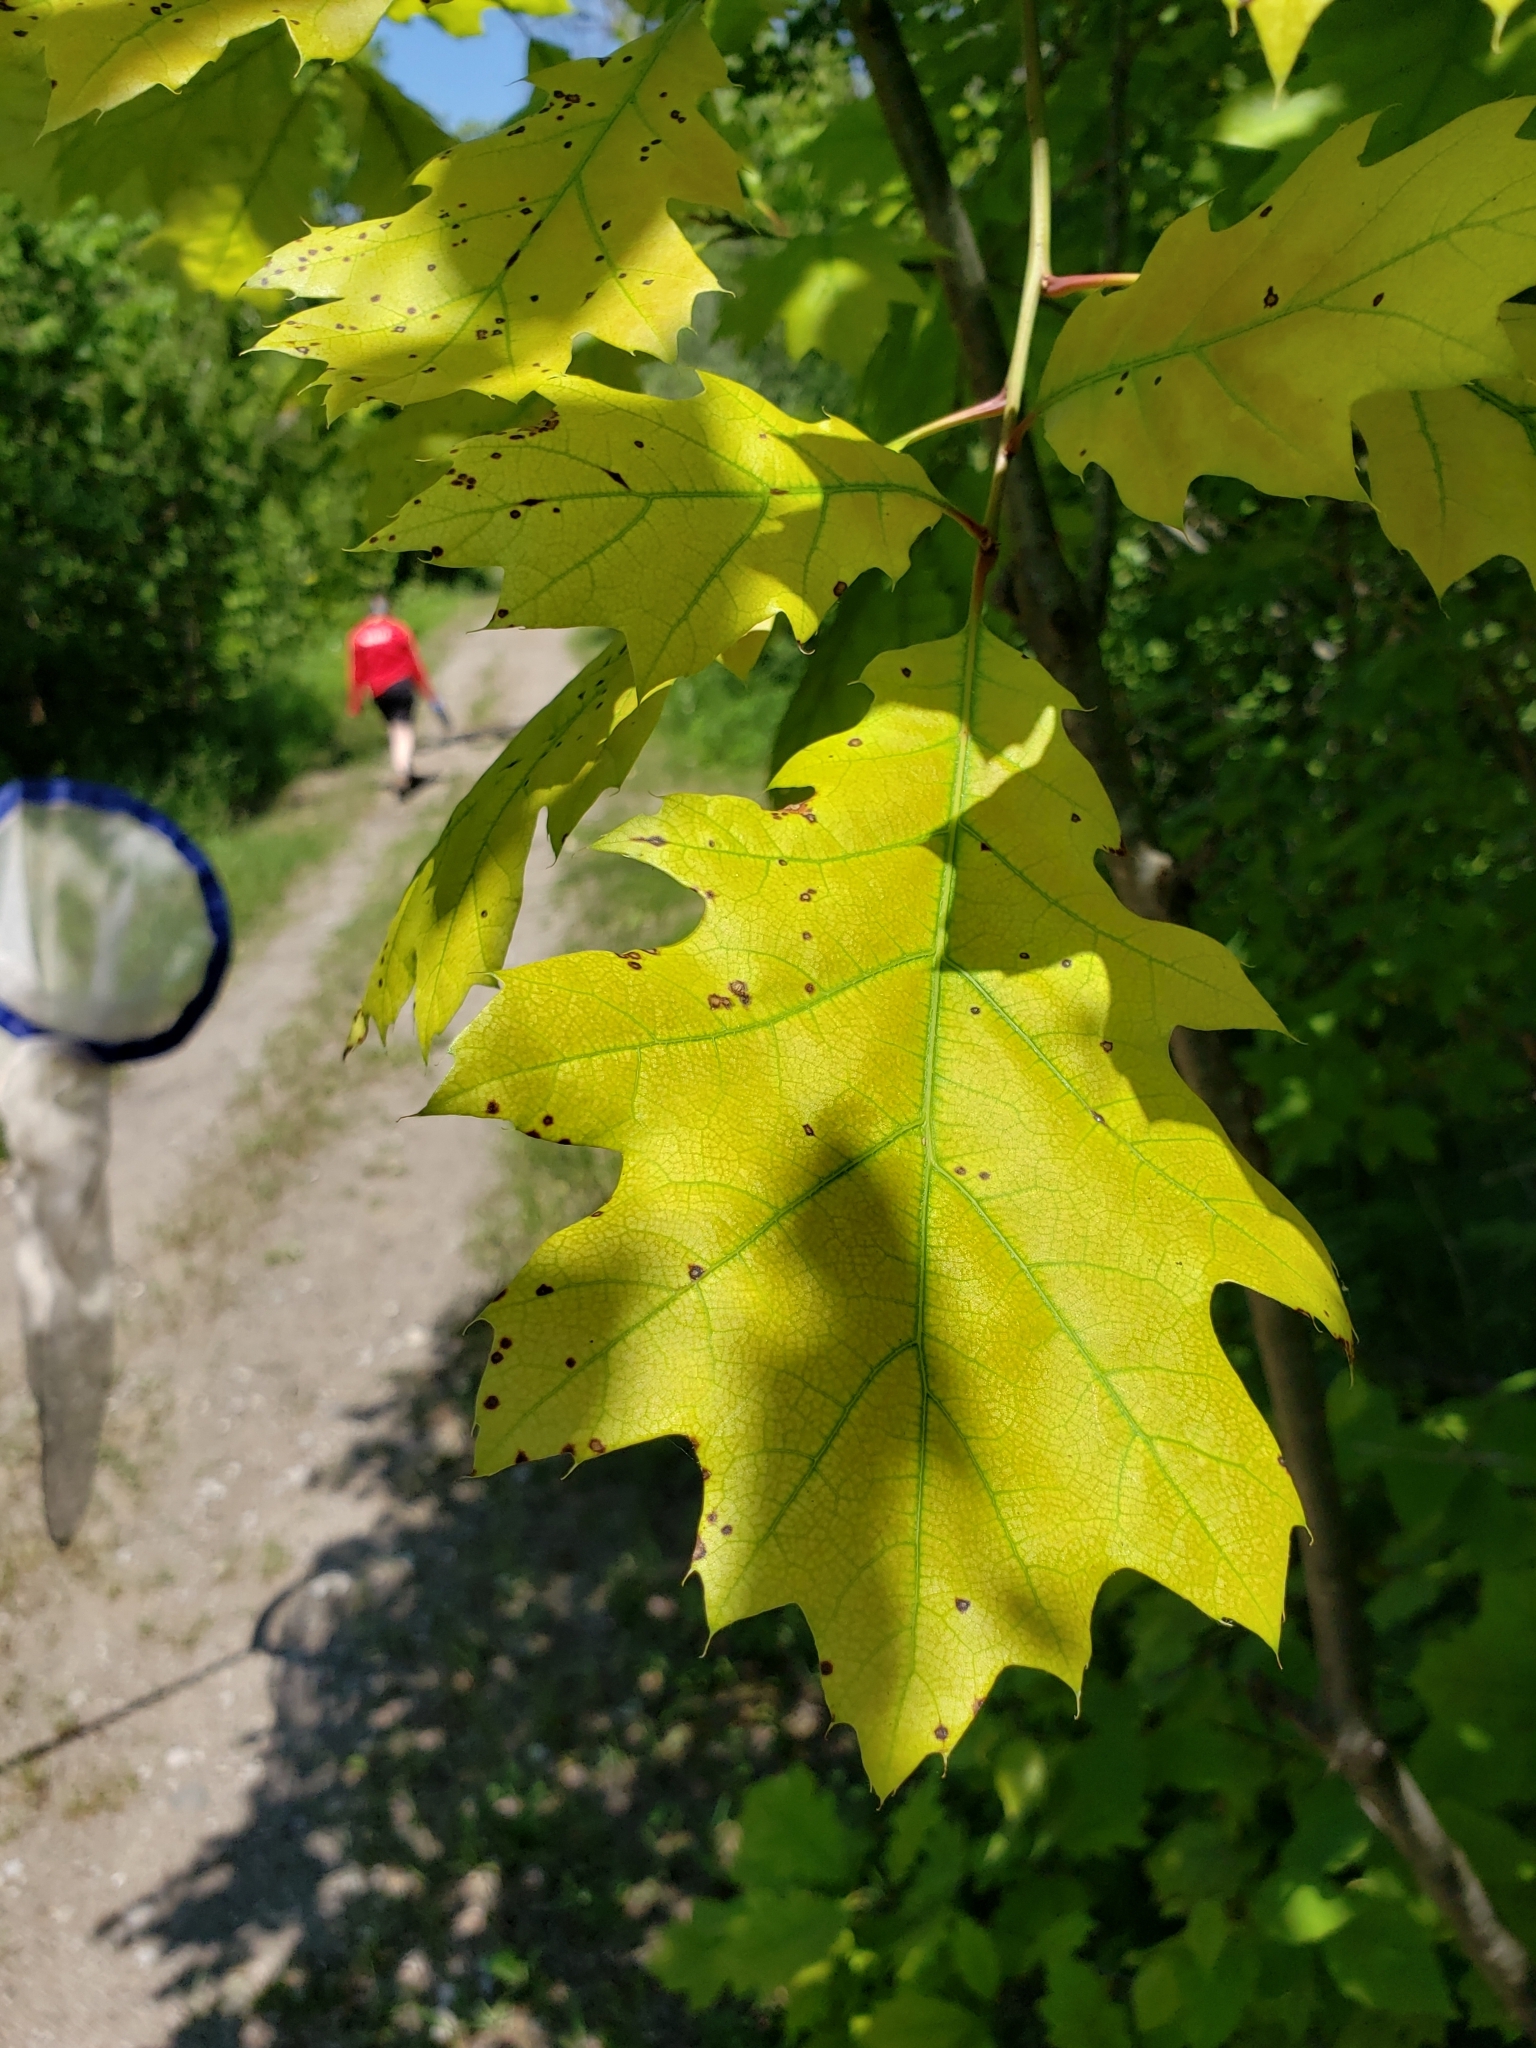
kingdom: Plantae
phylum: Tracheophyta
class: Magnoliopsida
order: Fagales
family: Fagaceae
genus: Quercus
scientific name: Quercus rubra
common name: Red oak
